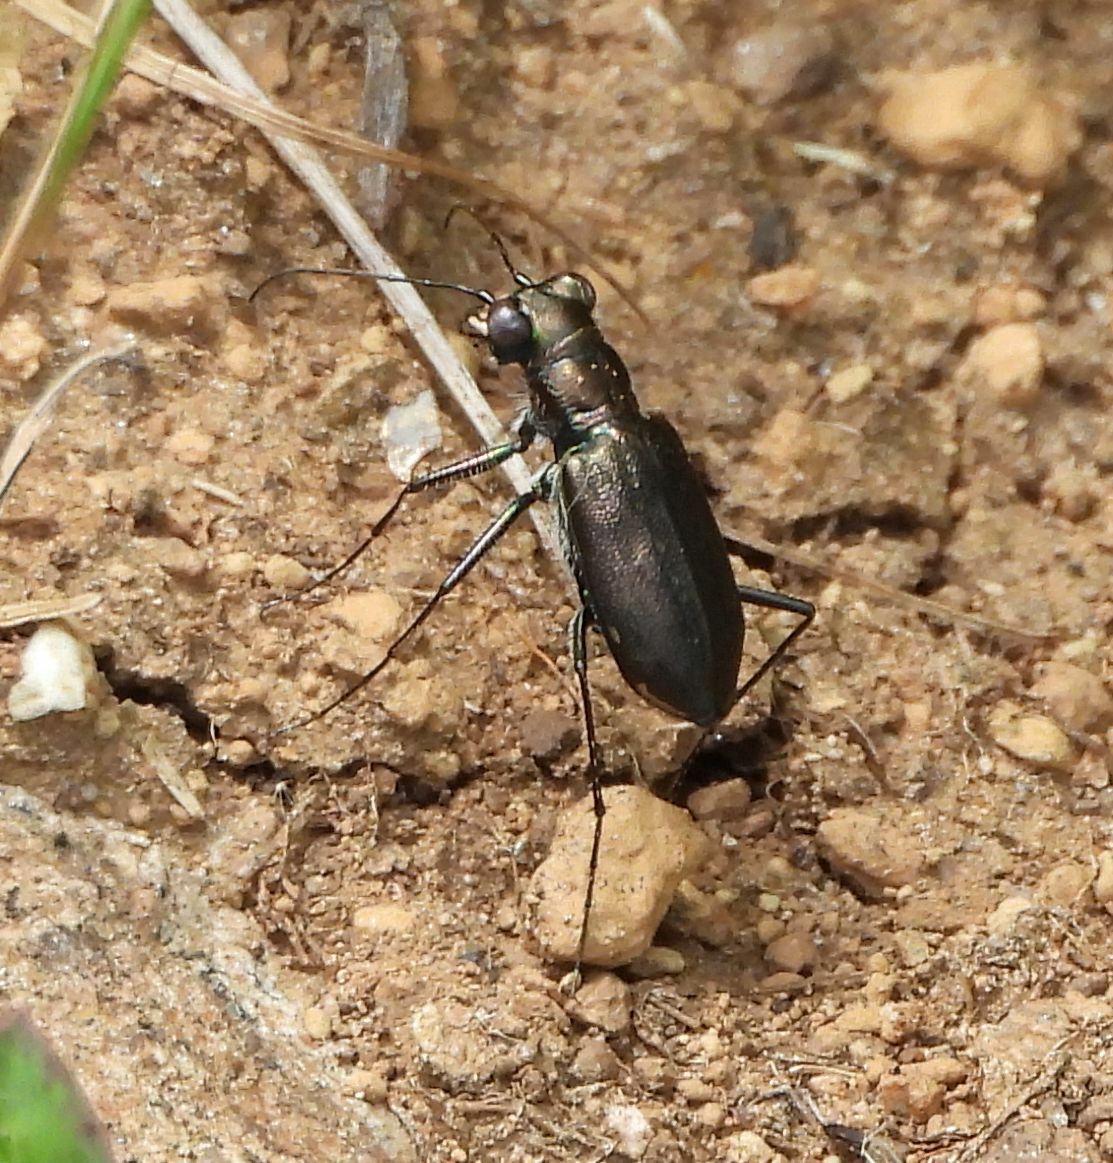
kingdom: Animalia
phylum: Arthropoda
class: Insecta
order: Coleoptera
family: Carabidae
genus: Cicindela
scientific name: Cicindela punctulata
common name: Punctured tiger beetle
